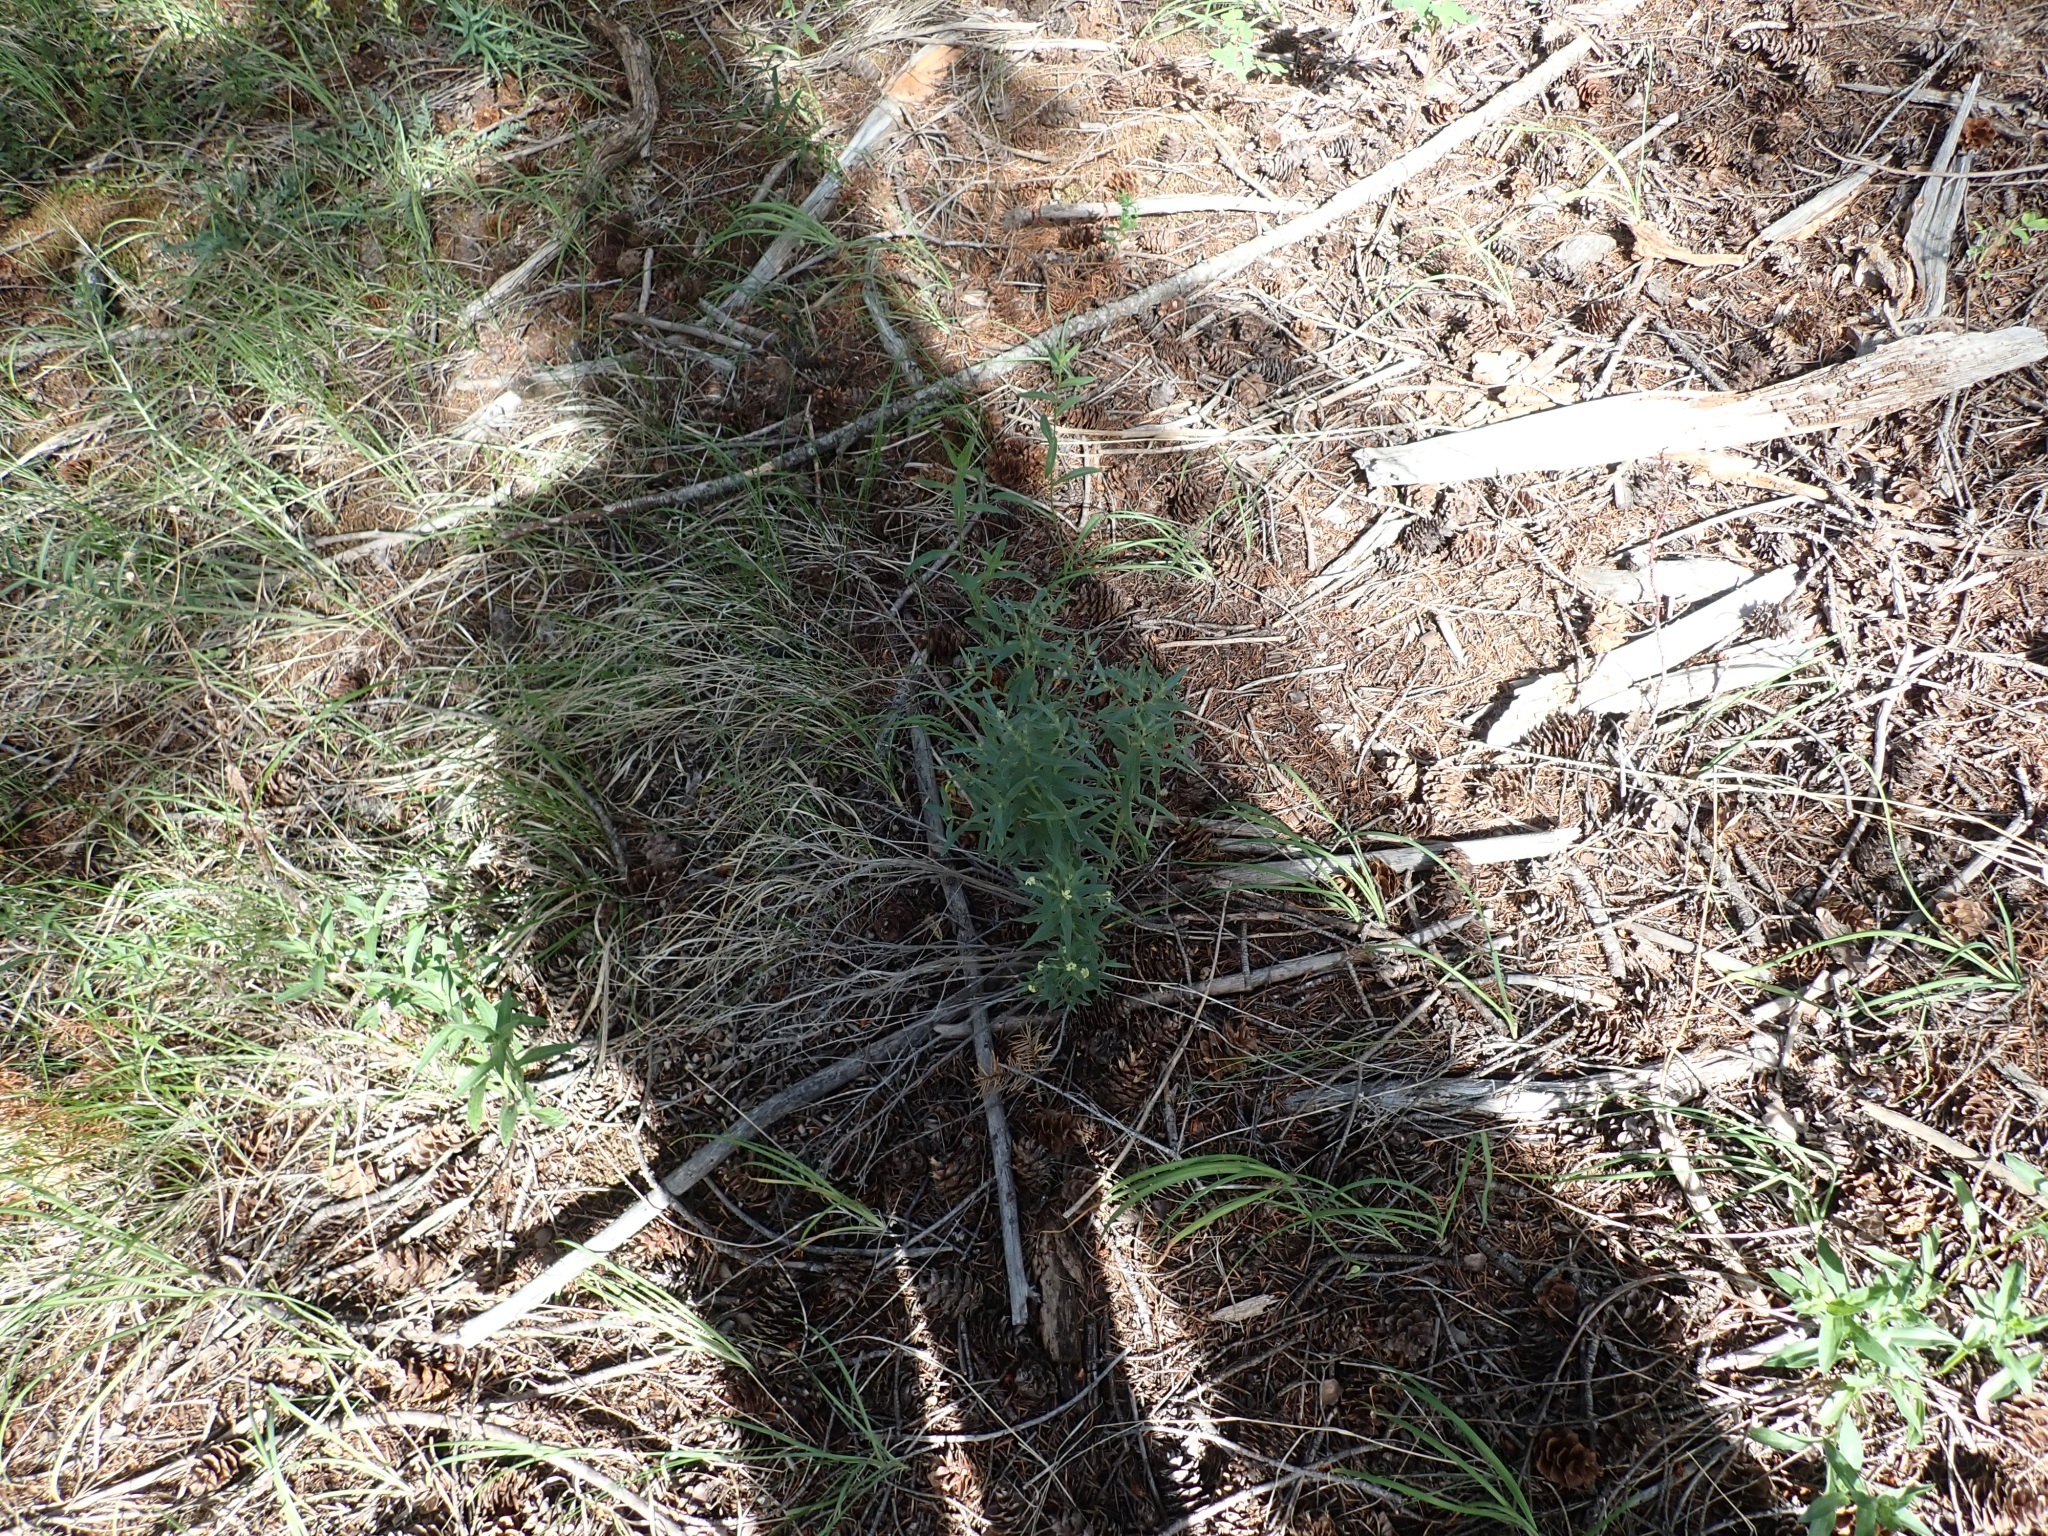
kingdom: Plantae
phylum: Tracheophyta
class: Magnoliopsida
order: Boraginales
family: Boraginaceae
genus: Lithospermum
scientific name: Lithospermum ruderale
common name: Western gromwell
